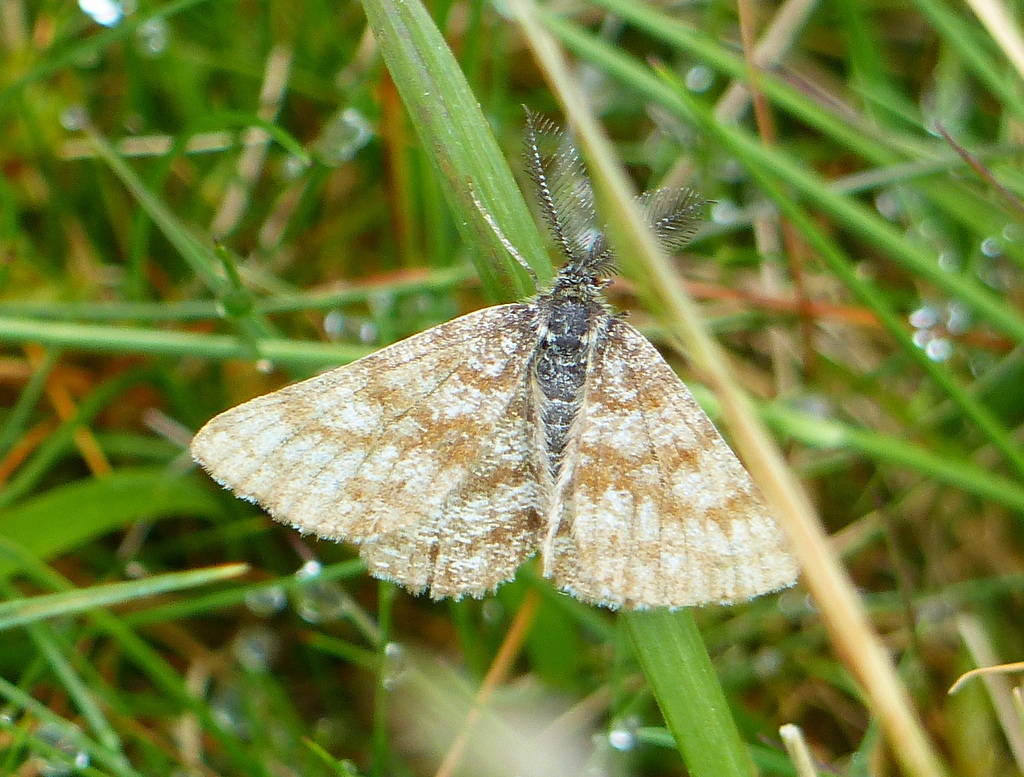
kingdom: Animalia
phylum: Arthropoda
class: Insecta
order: Lepidoptera
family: Geometridae
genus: Ematurga
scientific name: Ematurga atomaria
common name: Common heath
